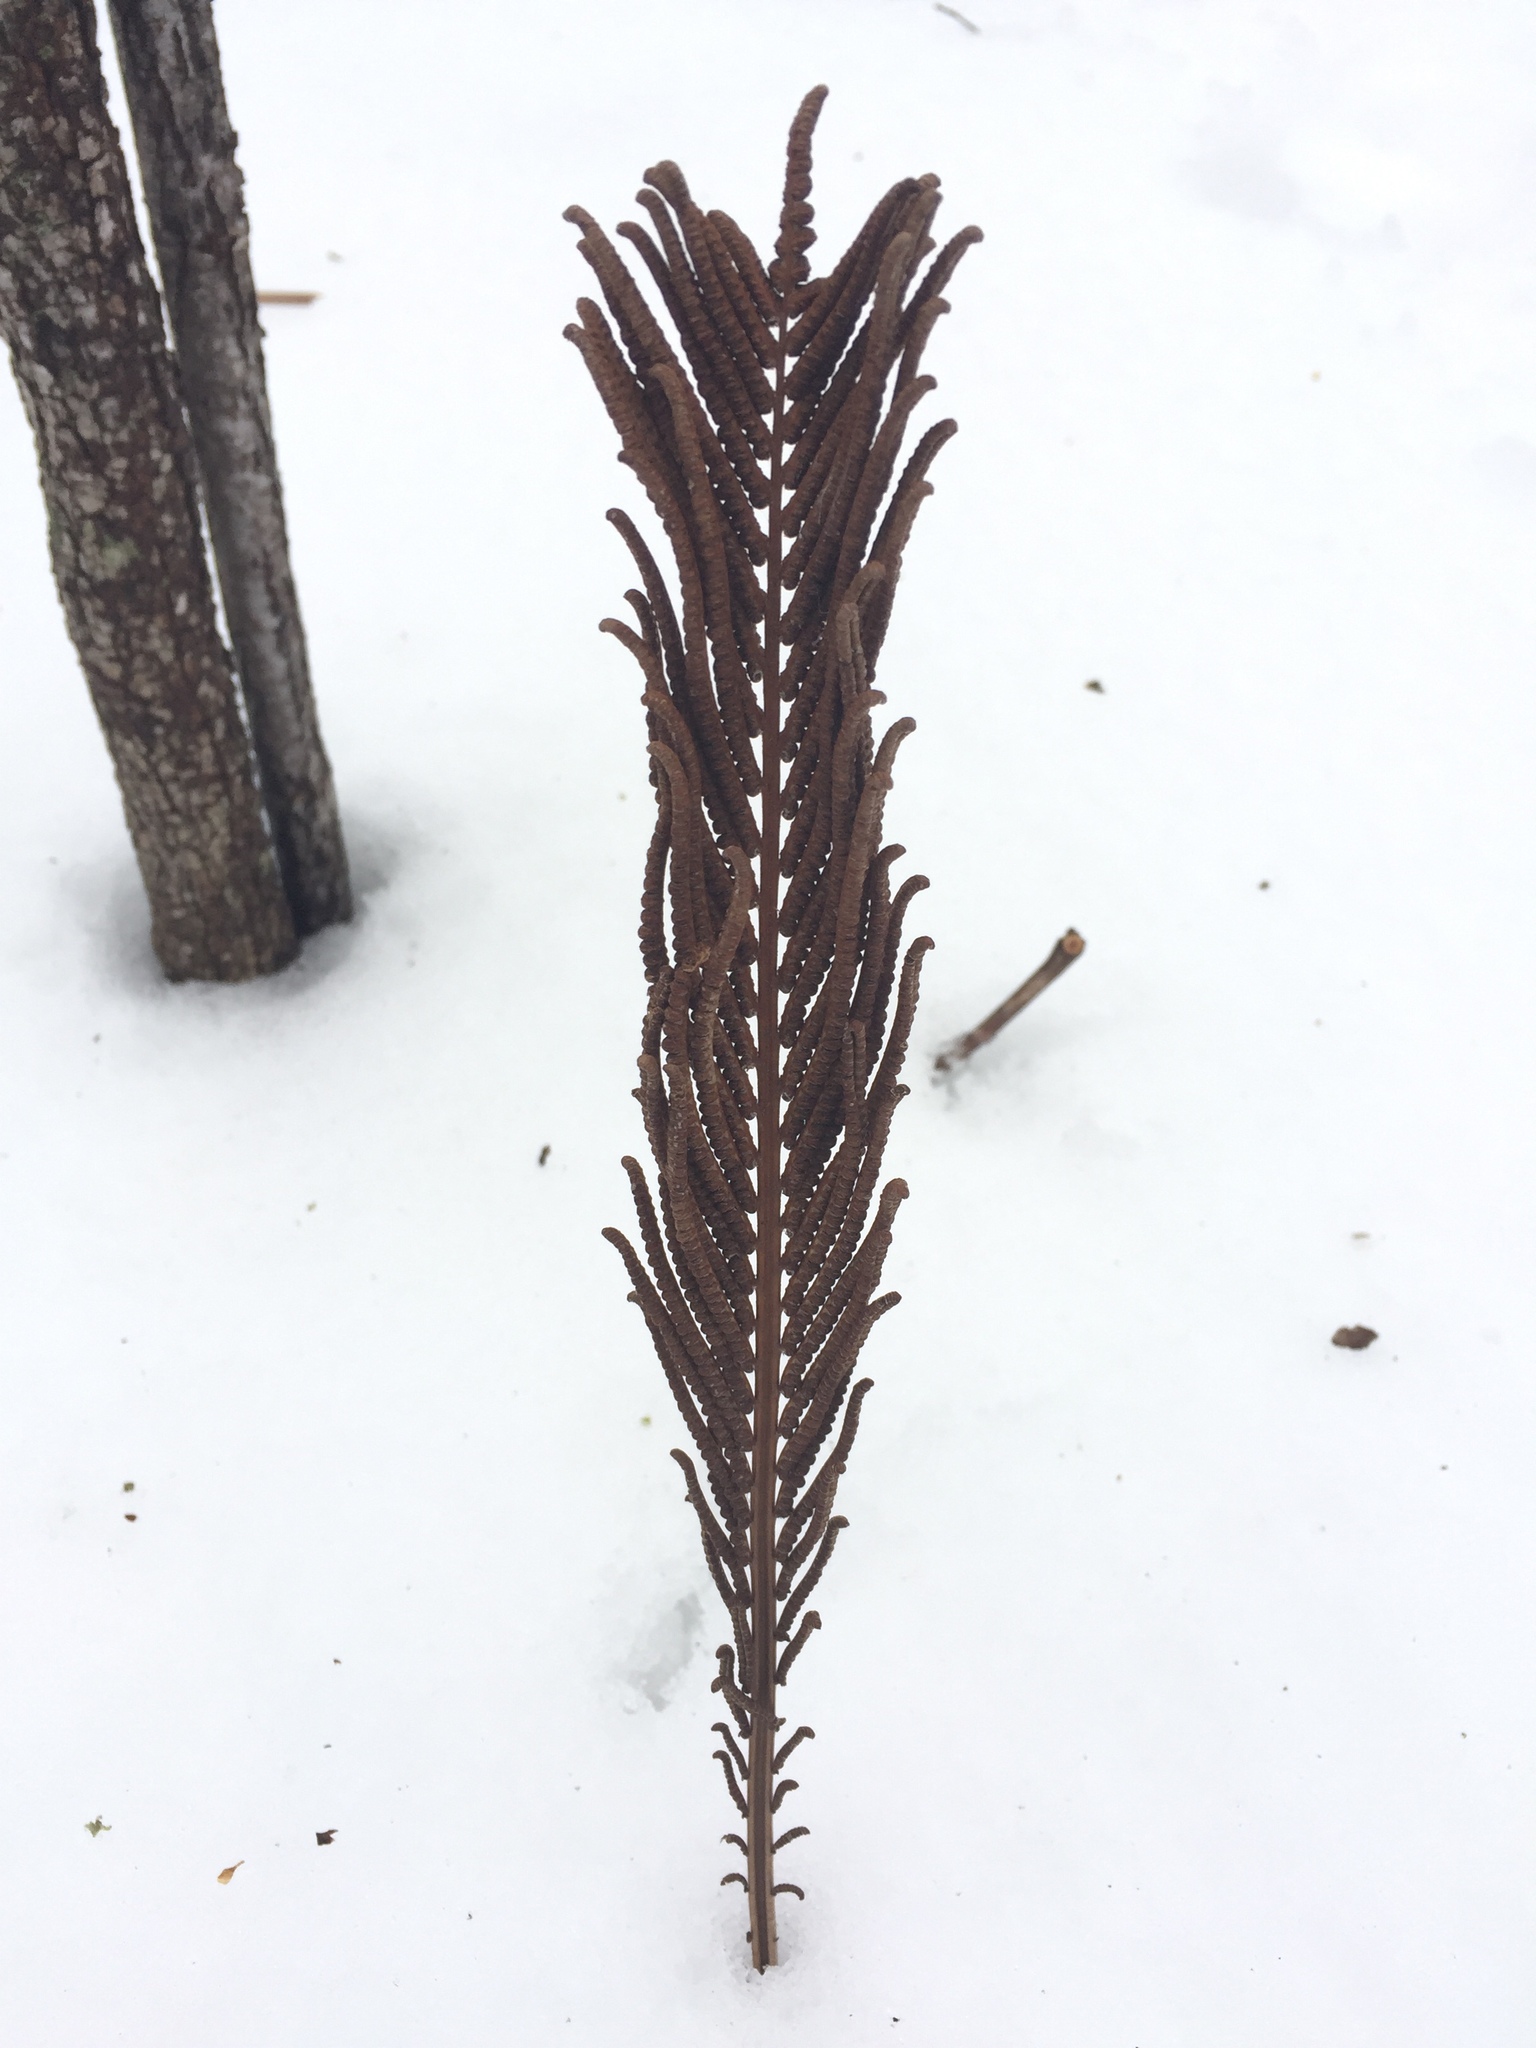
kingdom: Plantae
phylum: Tracheophyta
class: Polypodiopsida
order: Polypodiales
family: Onocleaceae
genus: Matteuccia
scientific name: Matteuccia struthiopteris
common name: Ostrich fern
